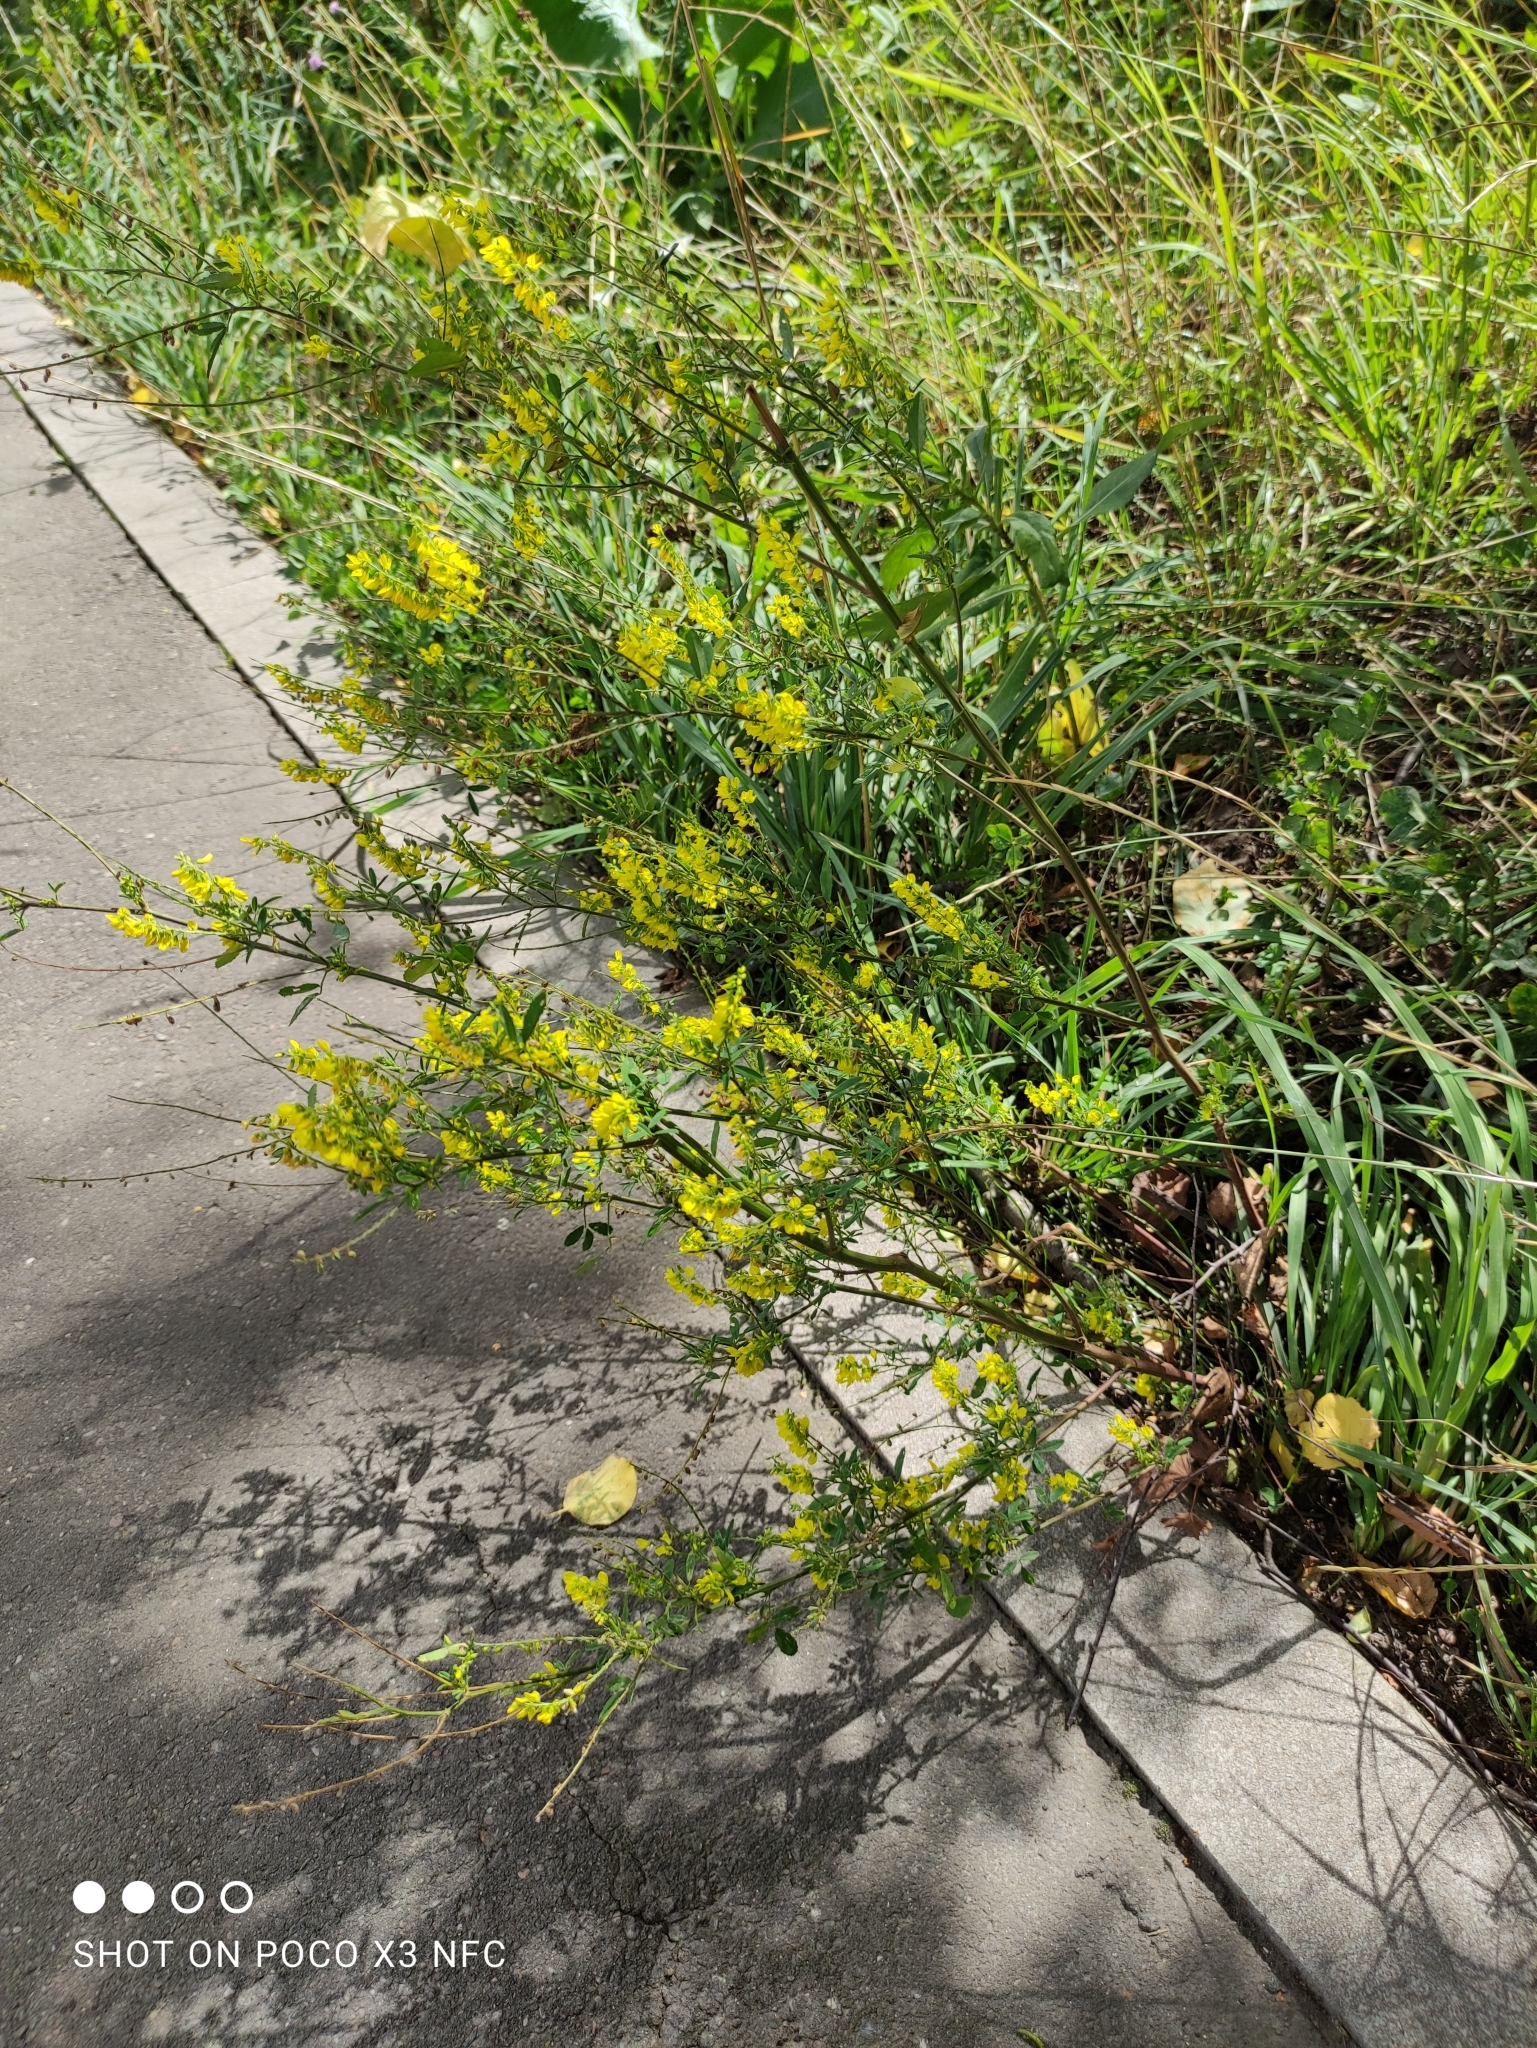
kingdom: Plantae
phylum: Tracheophyta
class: Magnoliopsida
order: Fabales
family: Fabaceae
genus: Melilotus
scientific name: Melilotus officinalis
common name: Sweetclover
